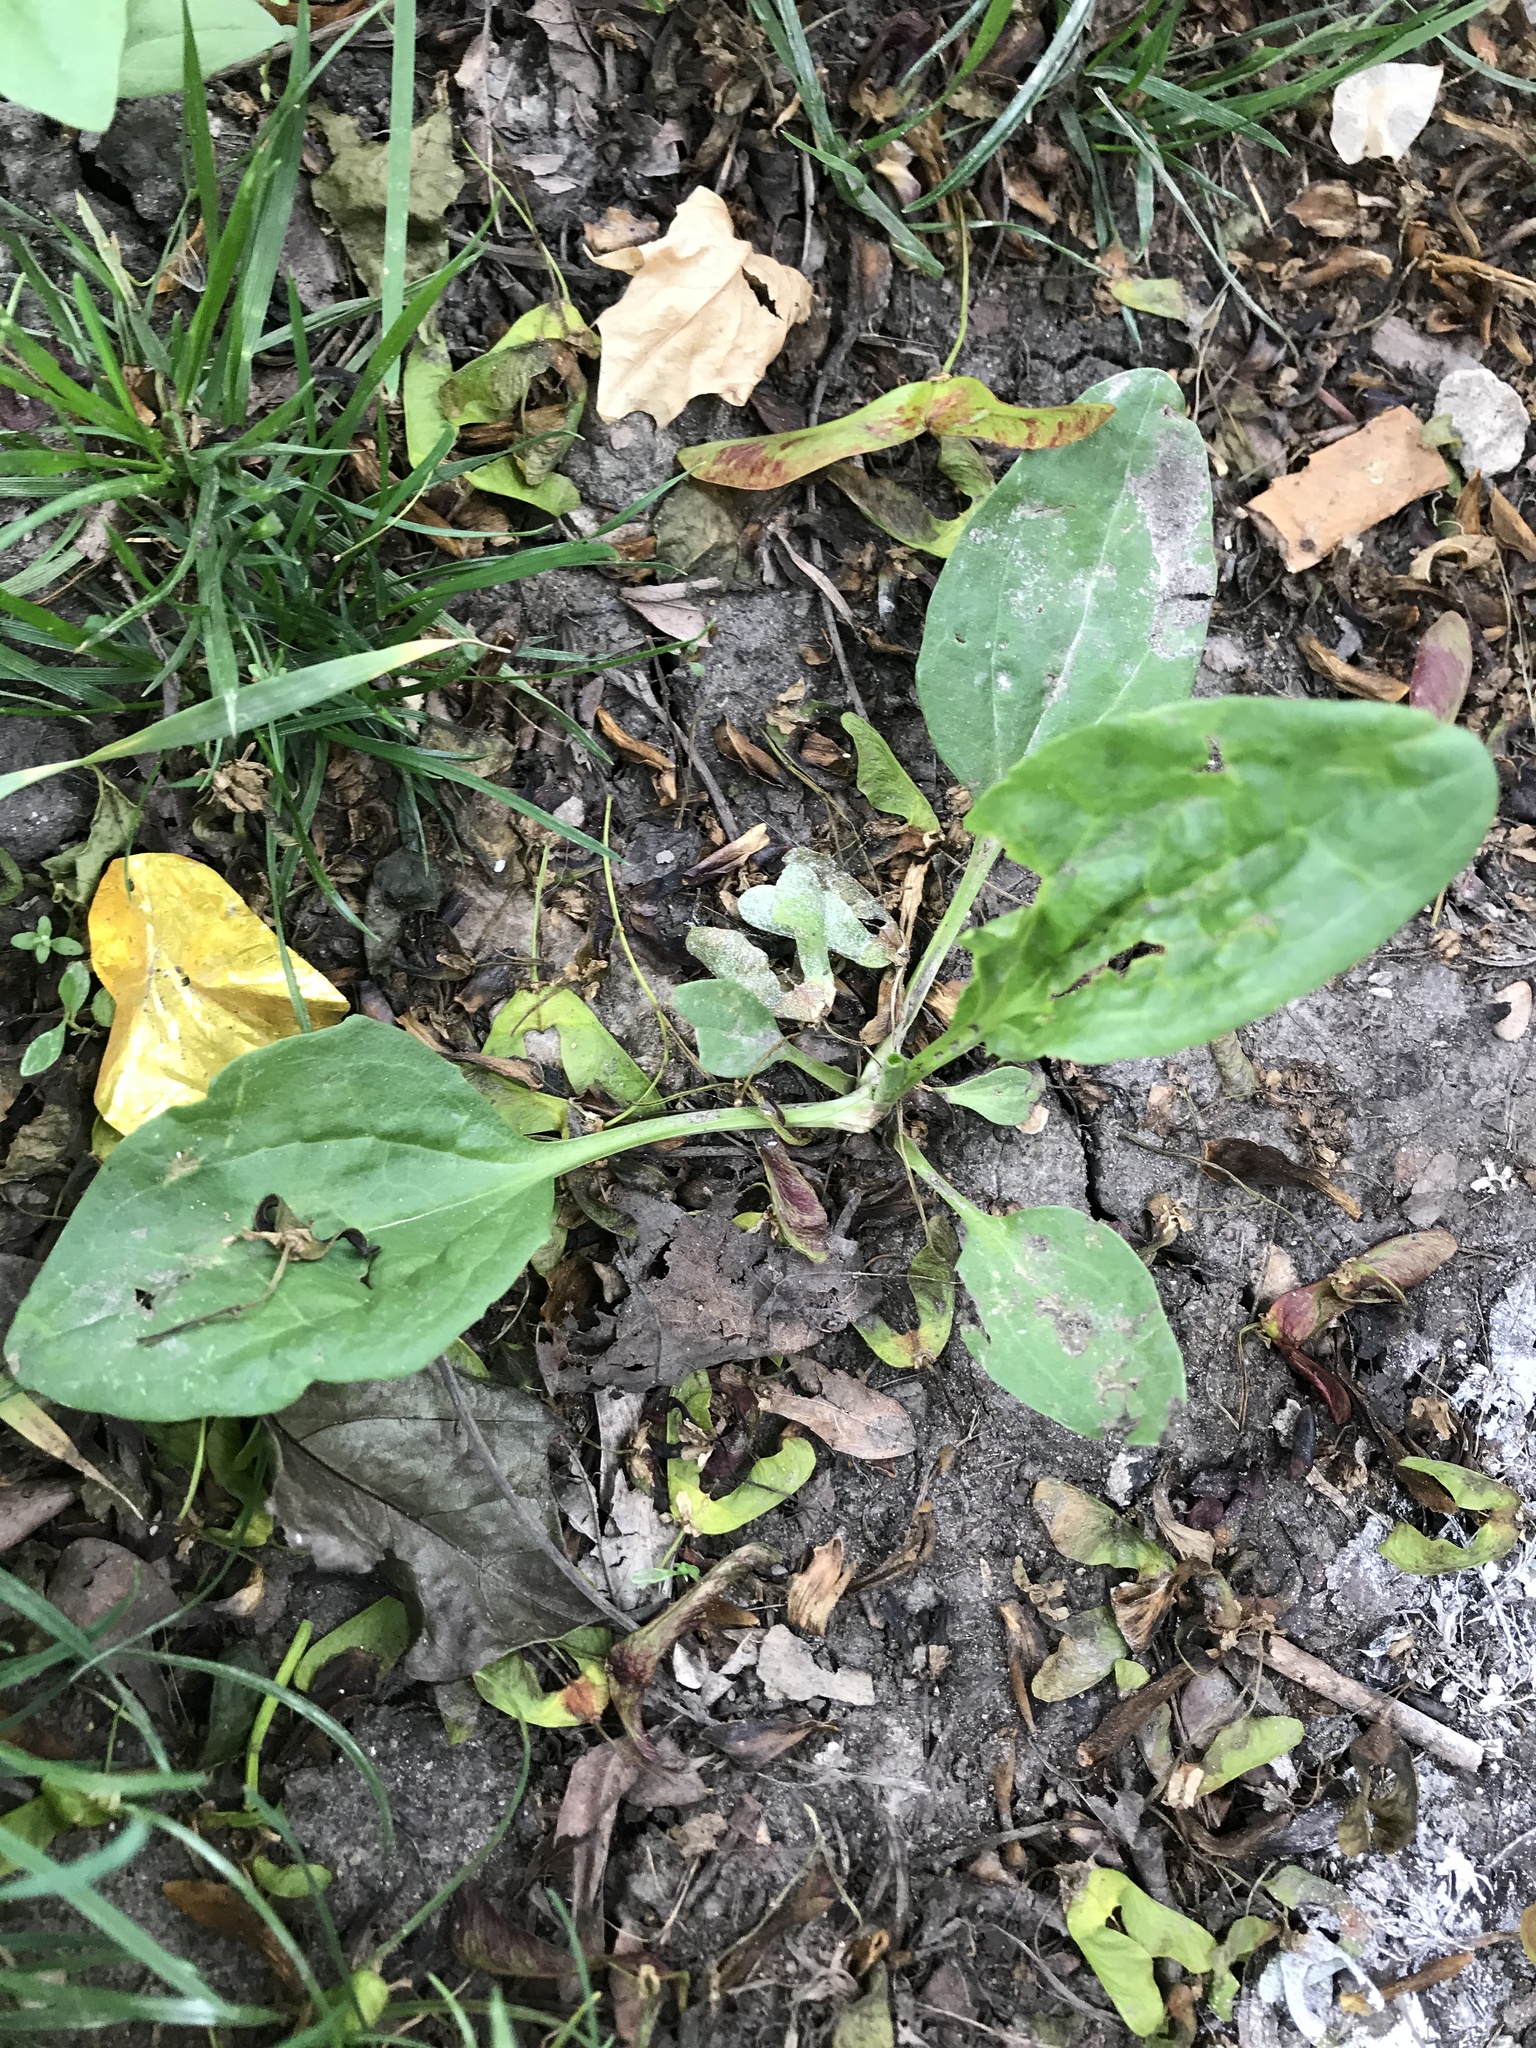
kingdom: Plantae
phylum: Tracheophyta
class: Magnoliopsida
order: Lamiales
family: Plantaginaceae
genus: Plantago
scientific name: Plantago major
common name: Common plantain
